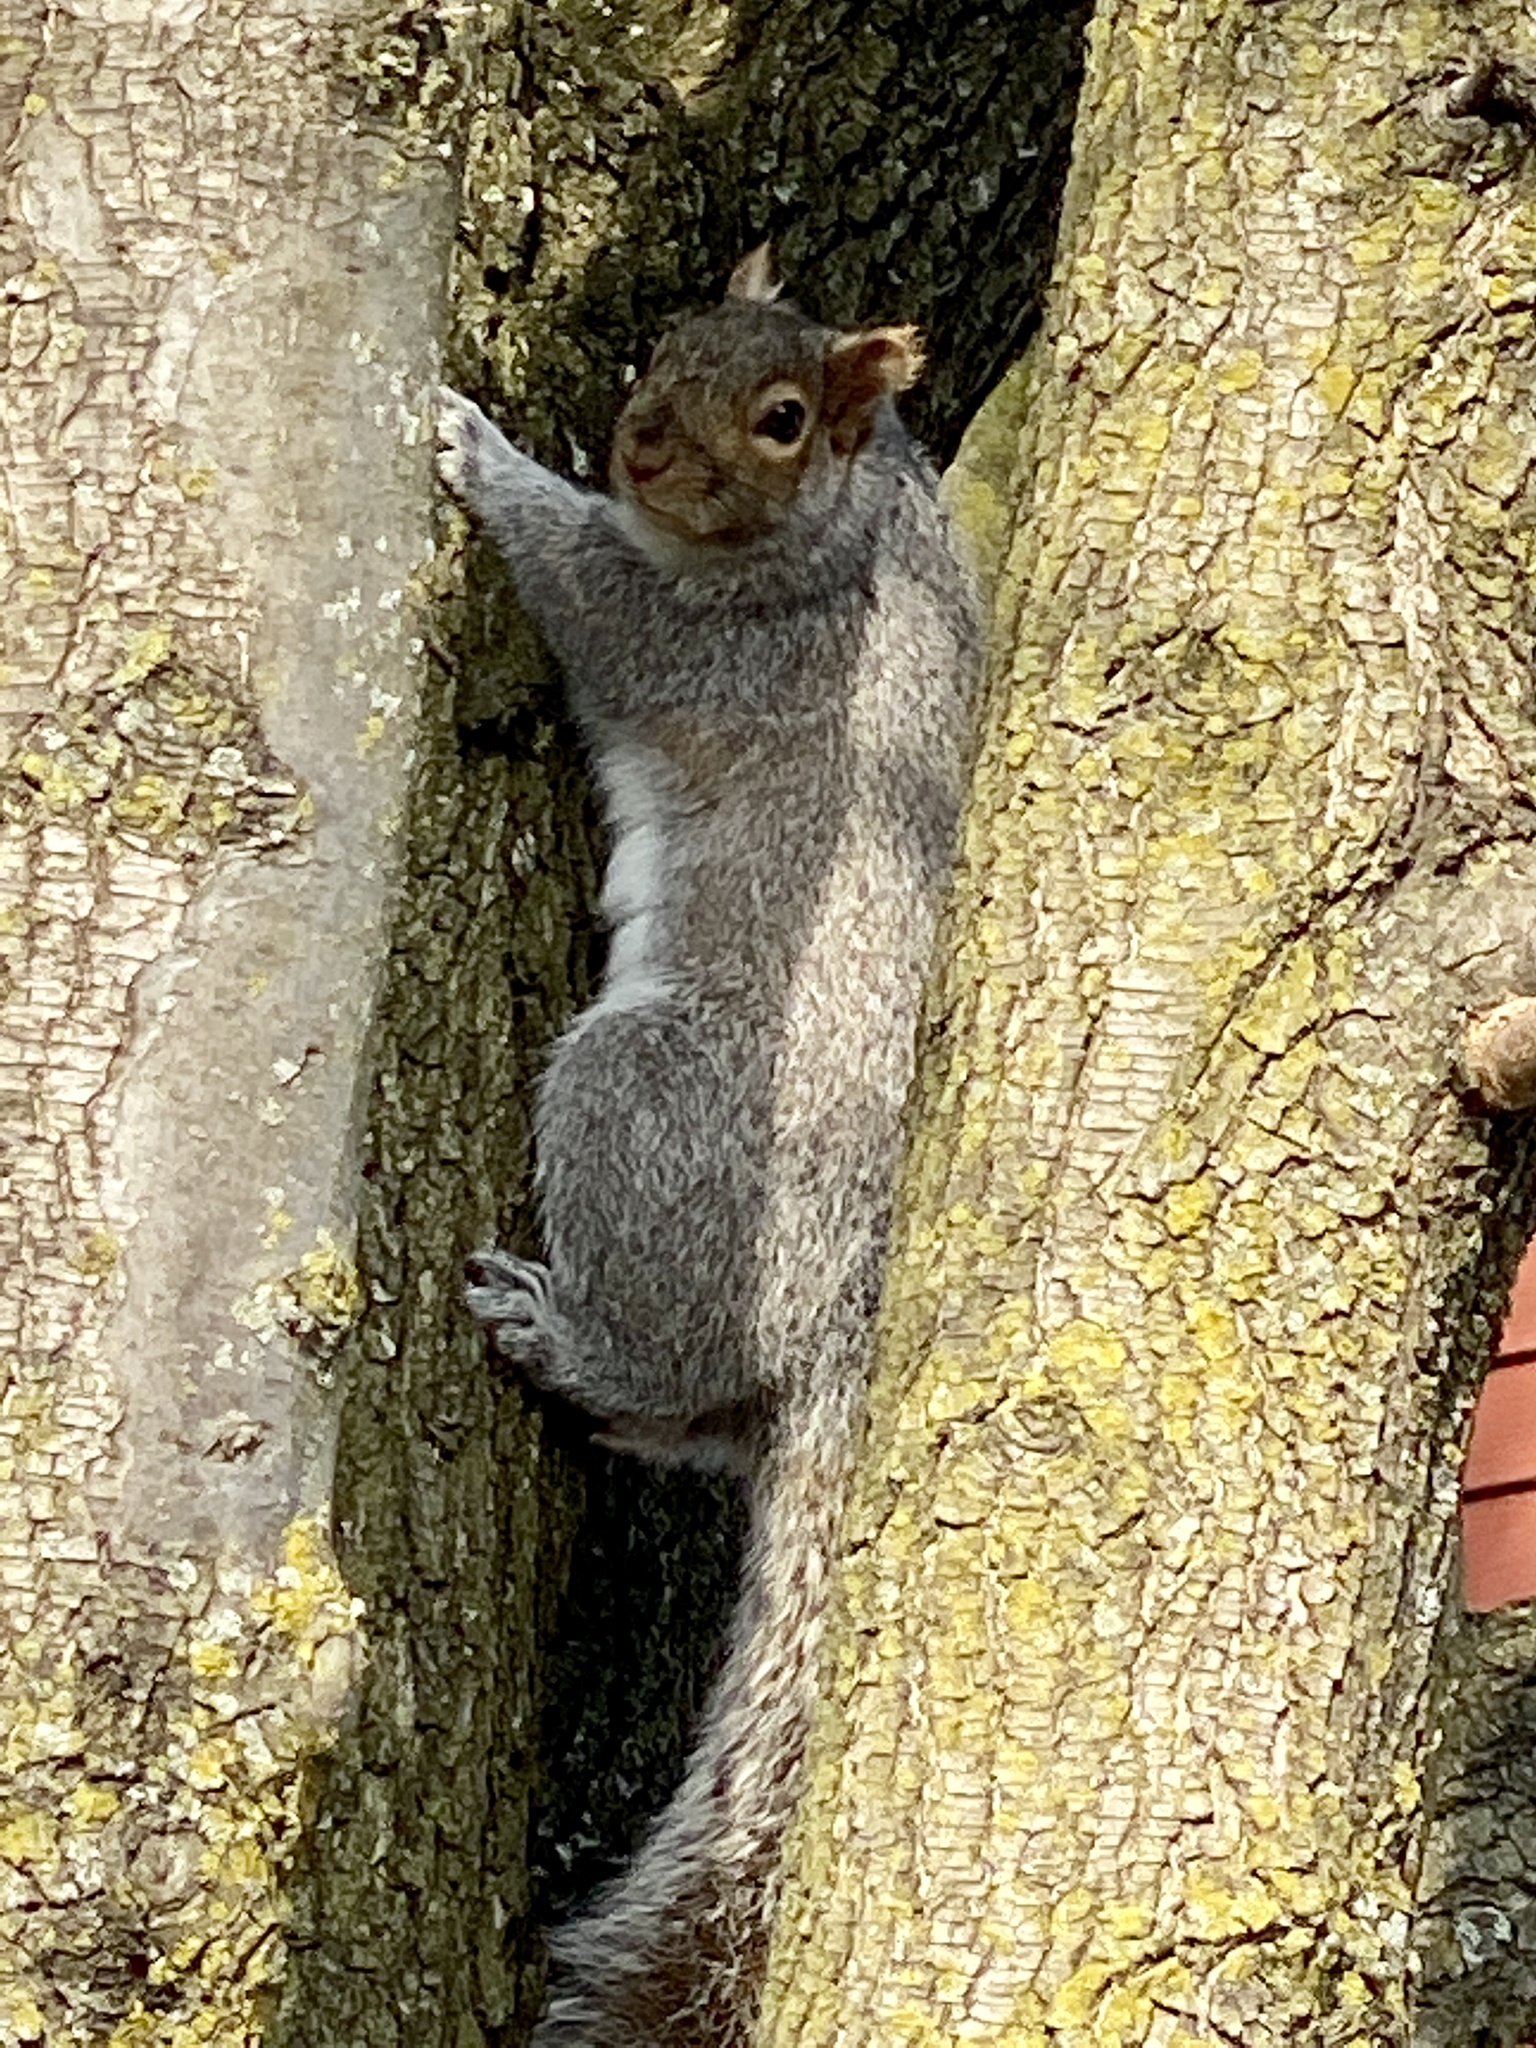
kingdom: Animalia
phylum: Chordata
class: Mammalia
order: Rodentia
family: Sciuridae
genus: Sciurus
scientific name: Sciurus carolinensis
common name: Eastern gray squirrel
